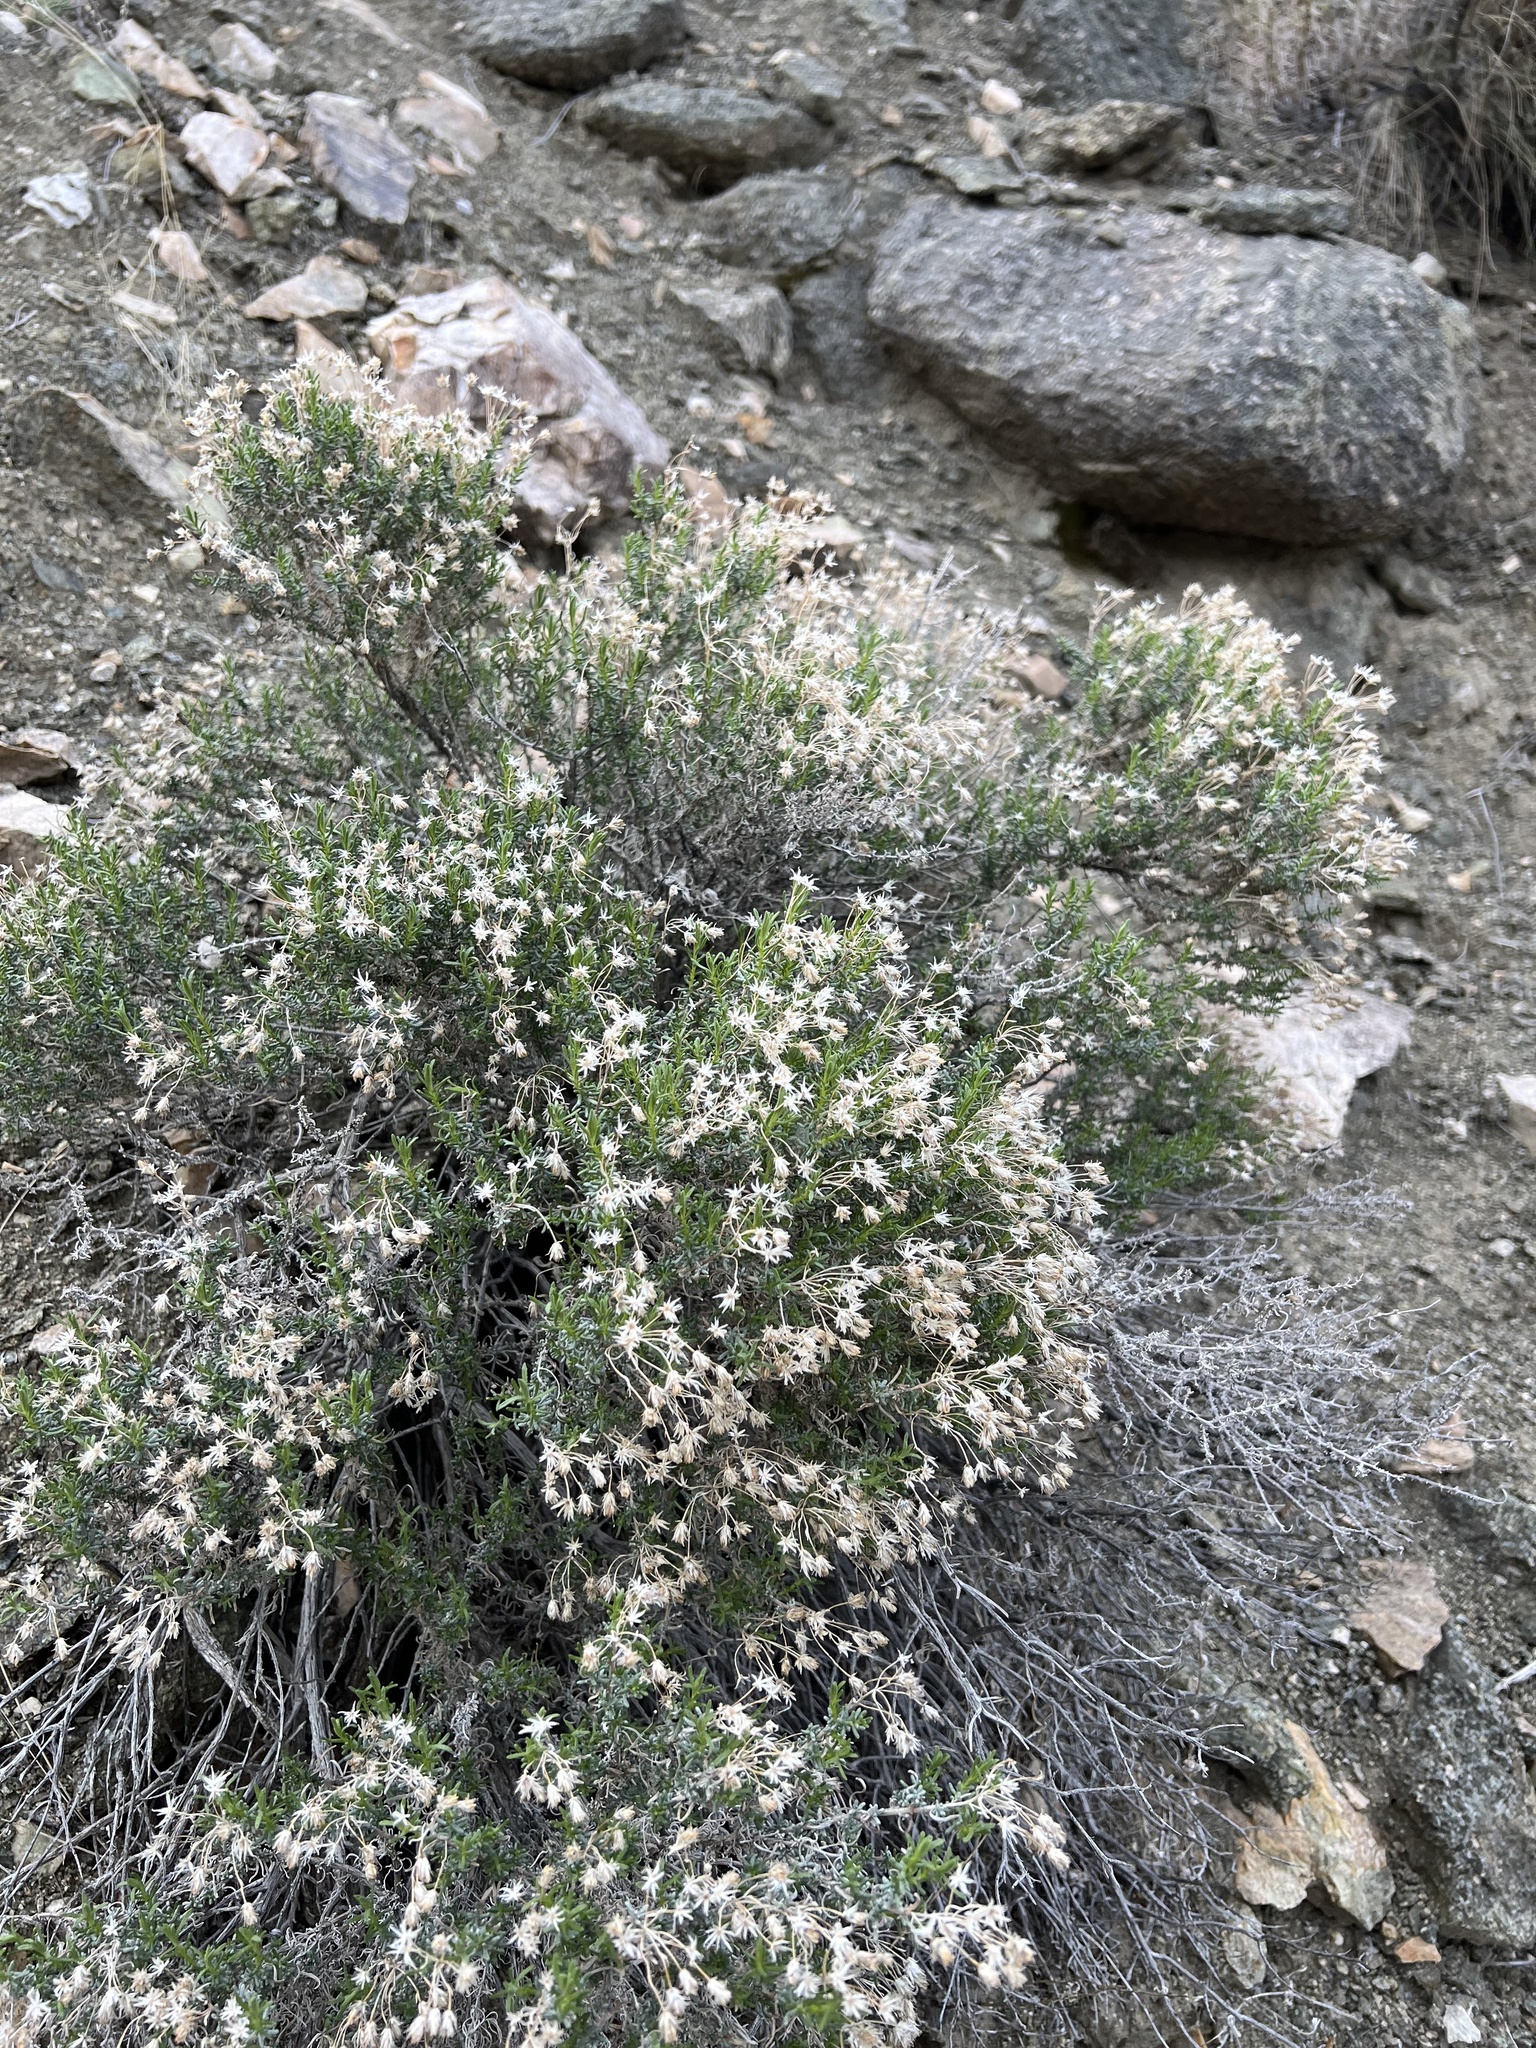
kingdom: Plantae
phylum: Tracheophyta
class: Magnoliopsida
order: Asterales
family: Asteraceae
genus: Ericameria
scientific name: Ericameria cooperi
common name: Cooper's goldenbush
